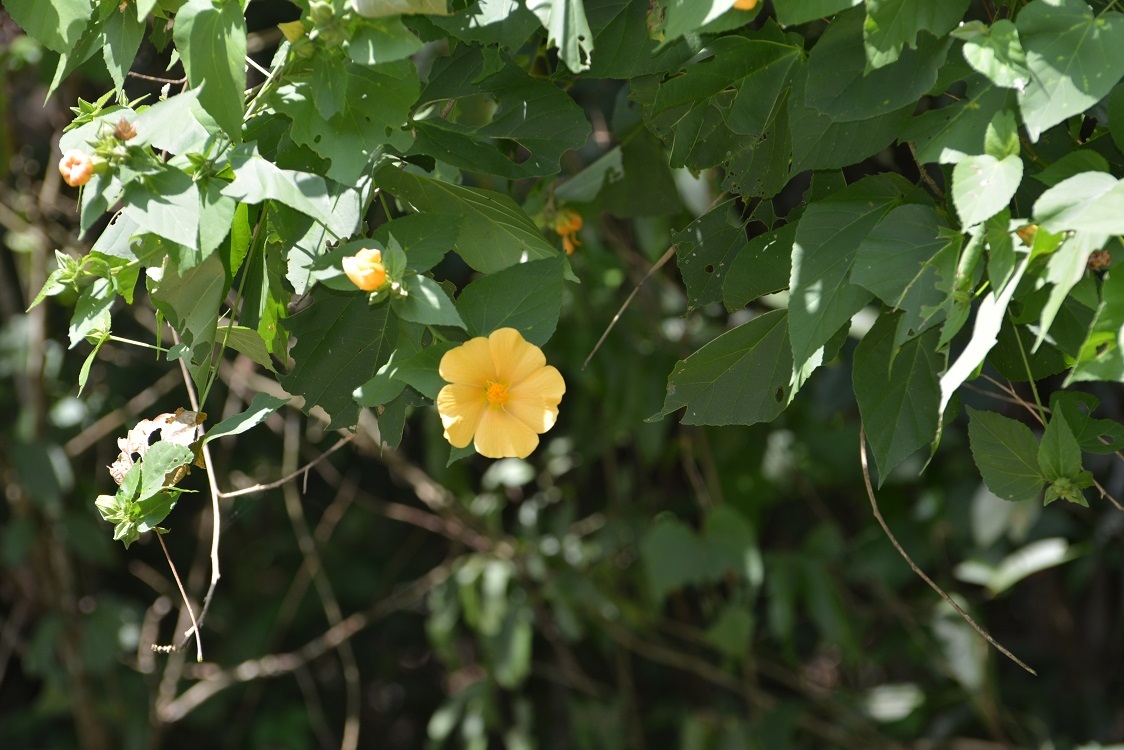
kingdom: Plantae
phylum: Tracheophyta
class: Magnoliopsida
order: Malvales
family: Malvaceae
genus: Dendrosida
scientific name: Dendrosida sharpiana
